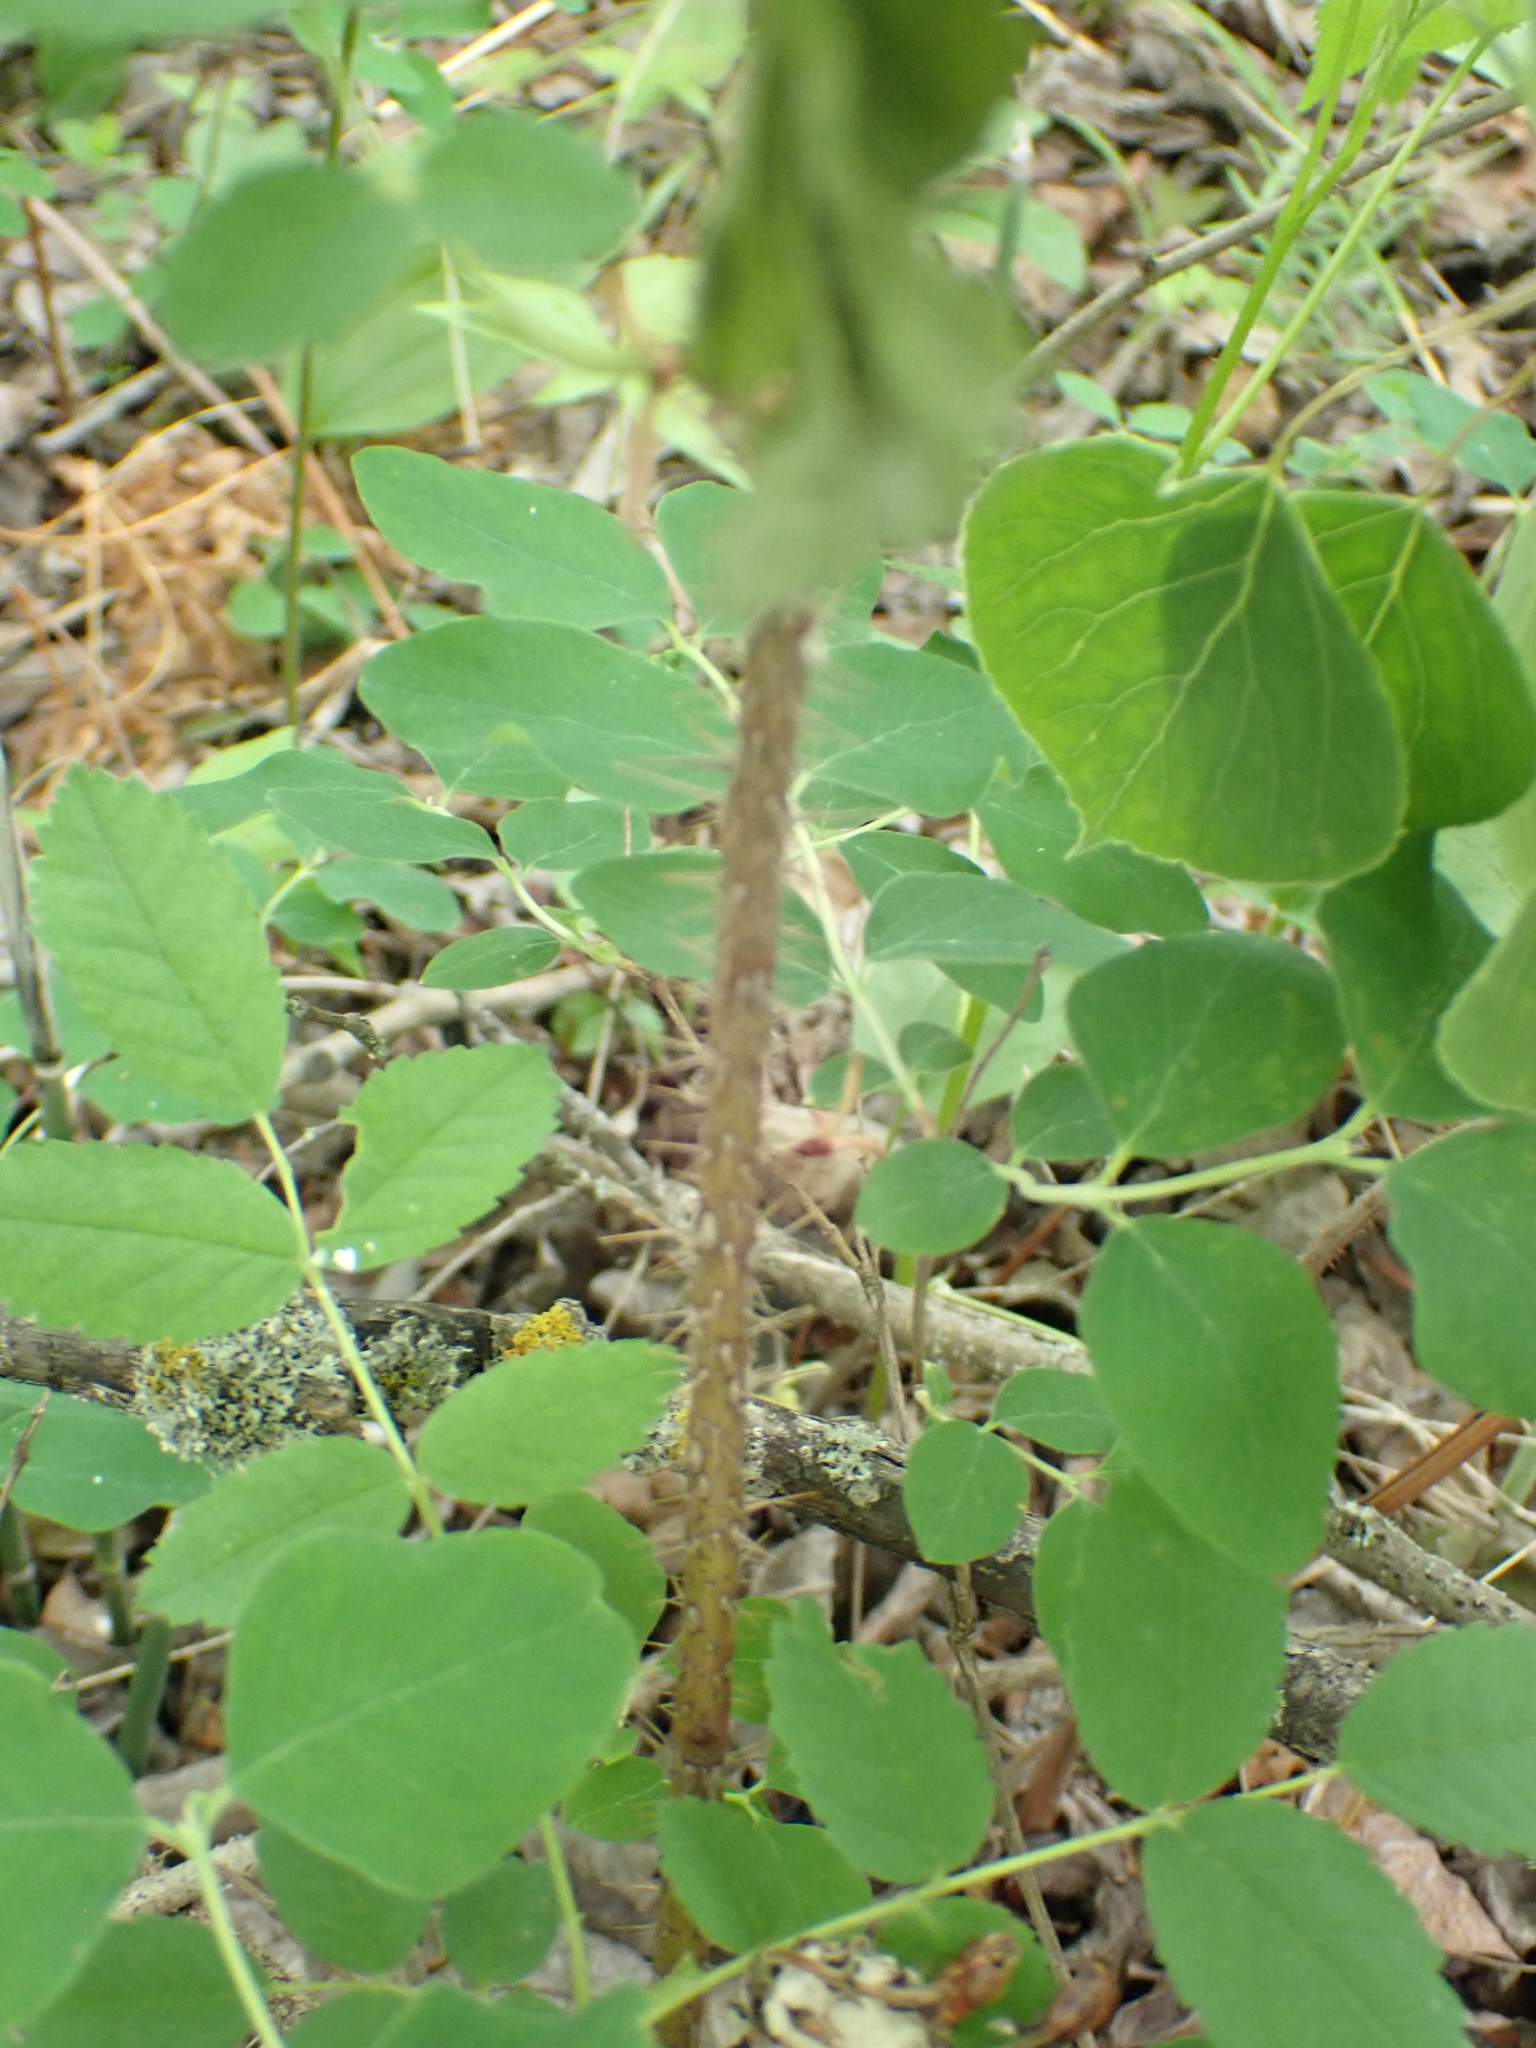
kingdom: Plantae
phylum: Tracheophyta
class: Magnoliopsida
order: Rosales
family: Rosaceae
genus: Rosa
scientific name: Rosa woodsii
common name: Woods's rose
